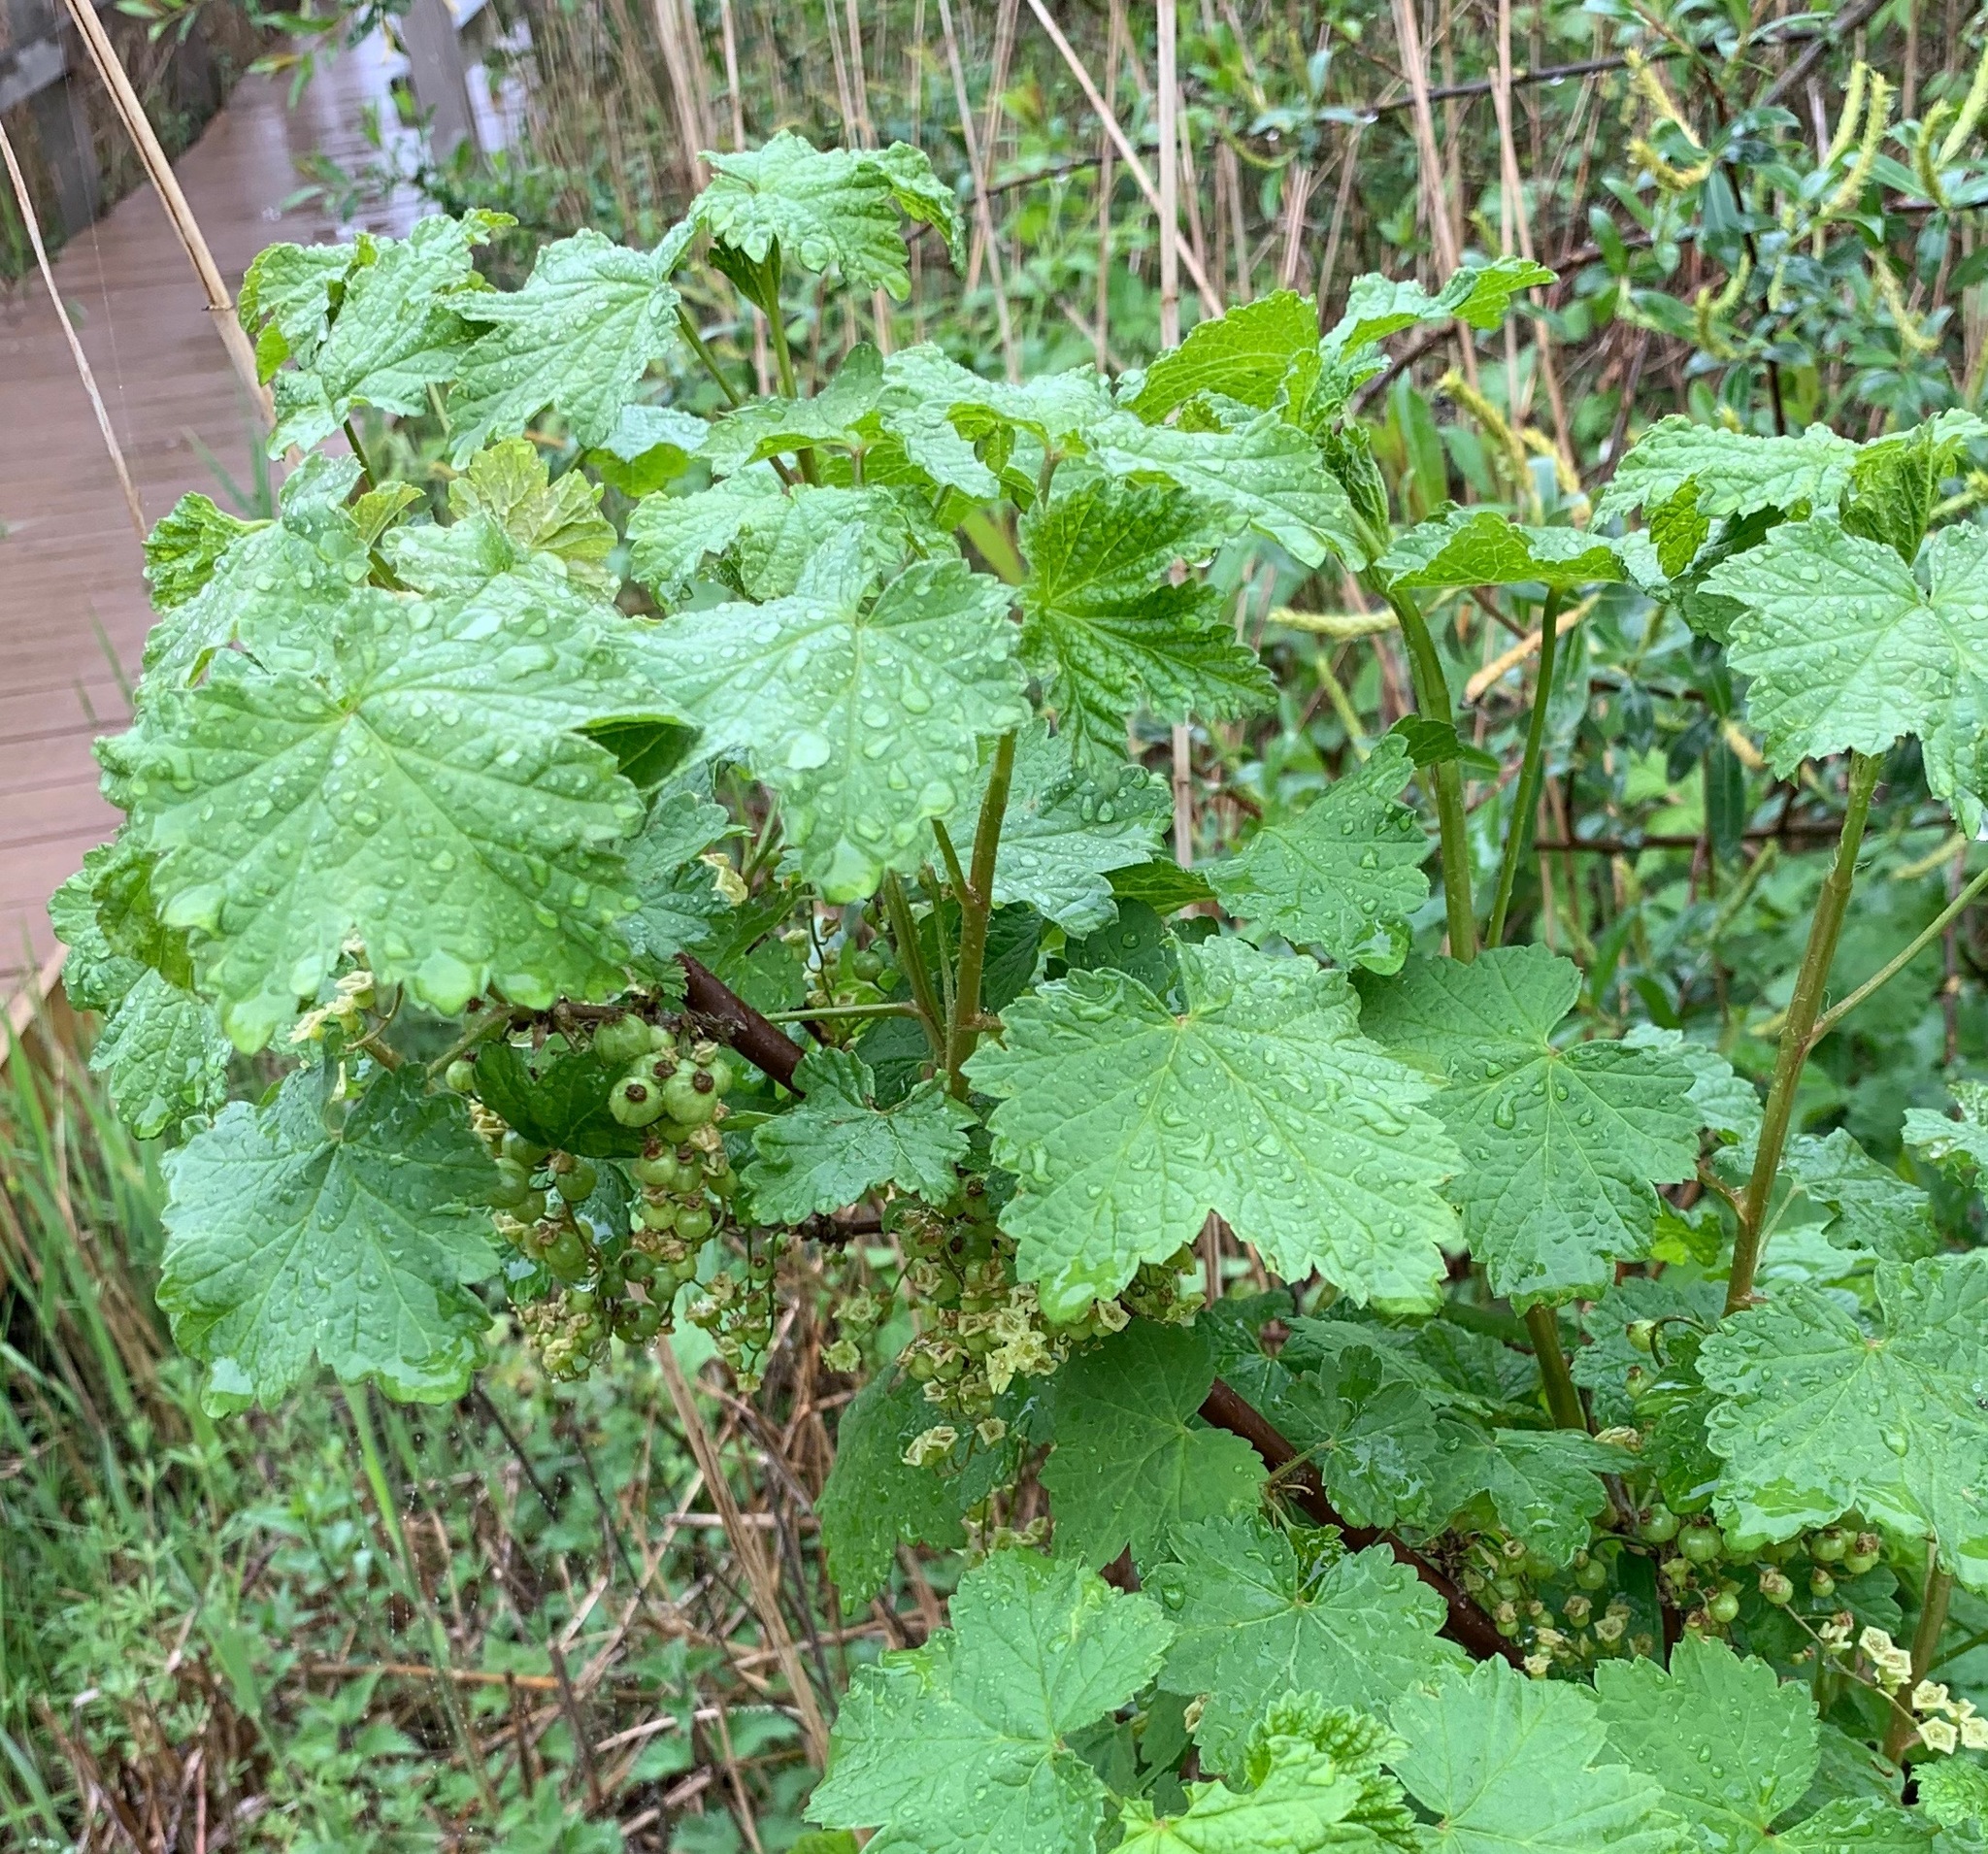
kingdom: Plantae
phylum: Tracheophyta
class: Magnoliopsida
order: Saxifragales
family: Grossulariaceae
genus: Ribes
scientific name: Ribes rubrum
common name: Red currant
